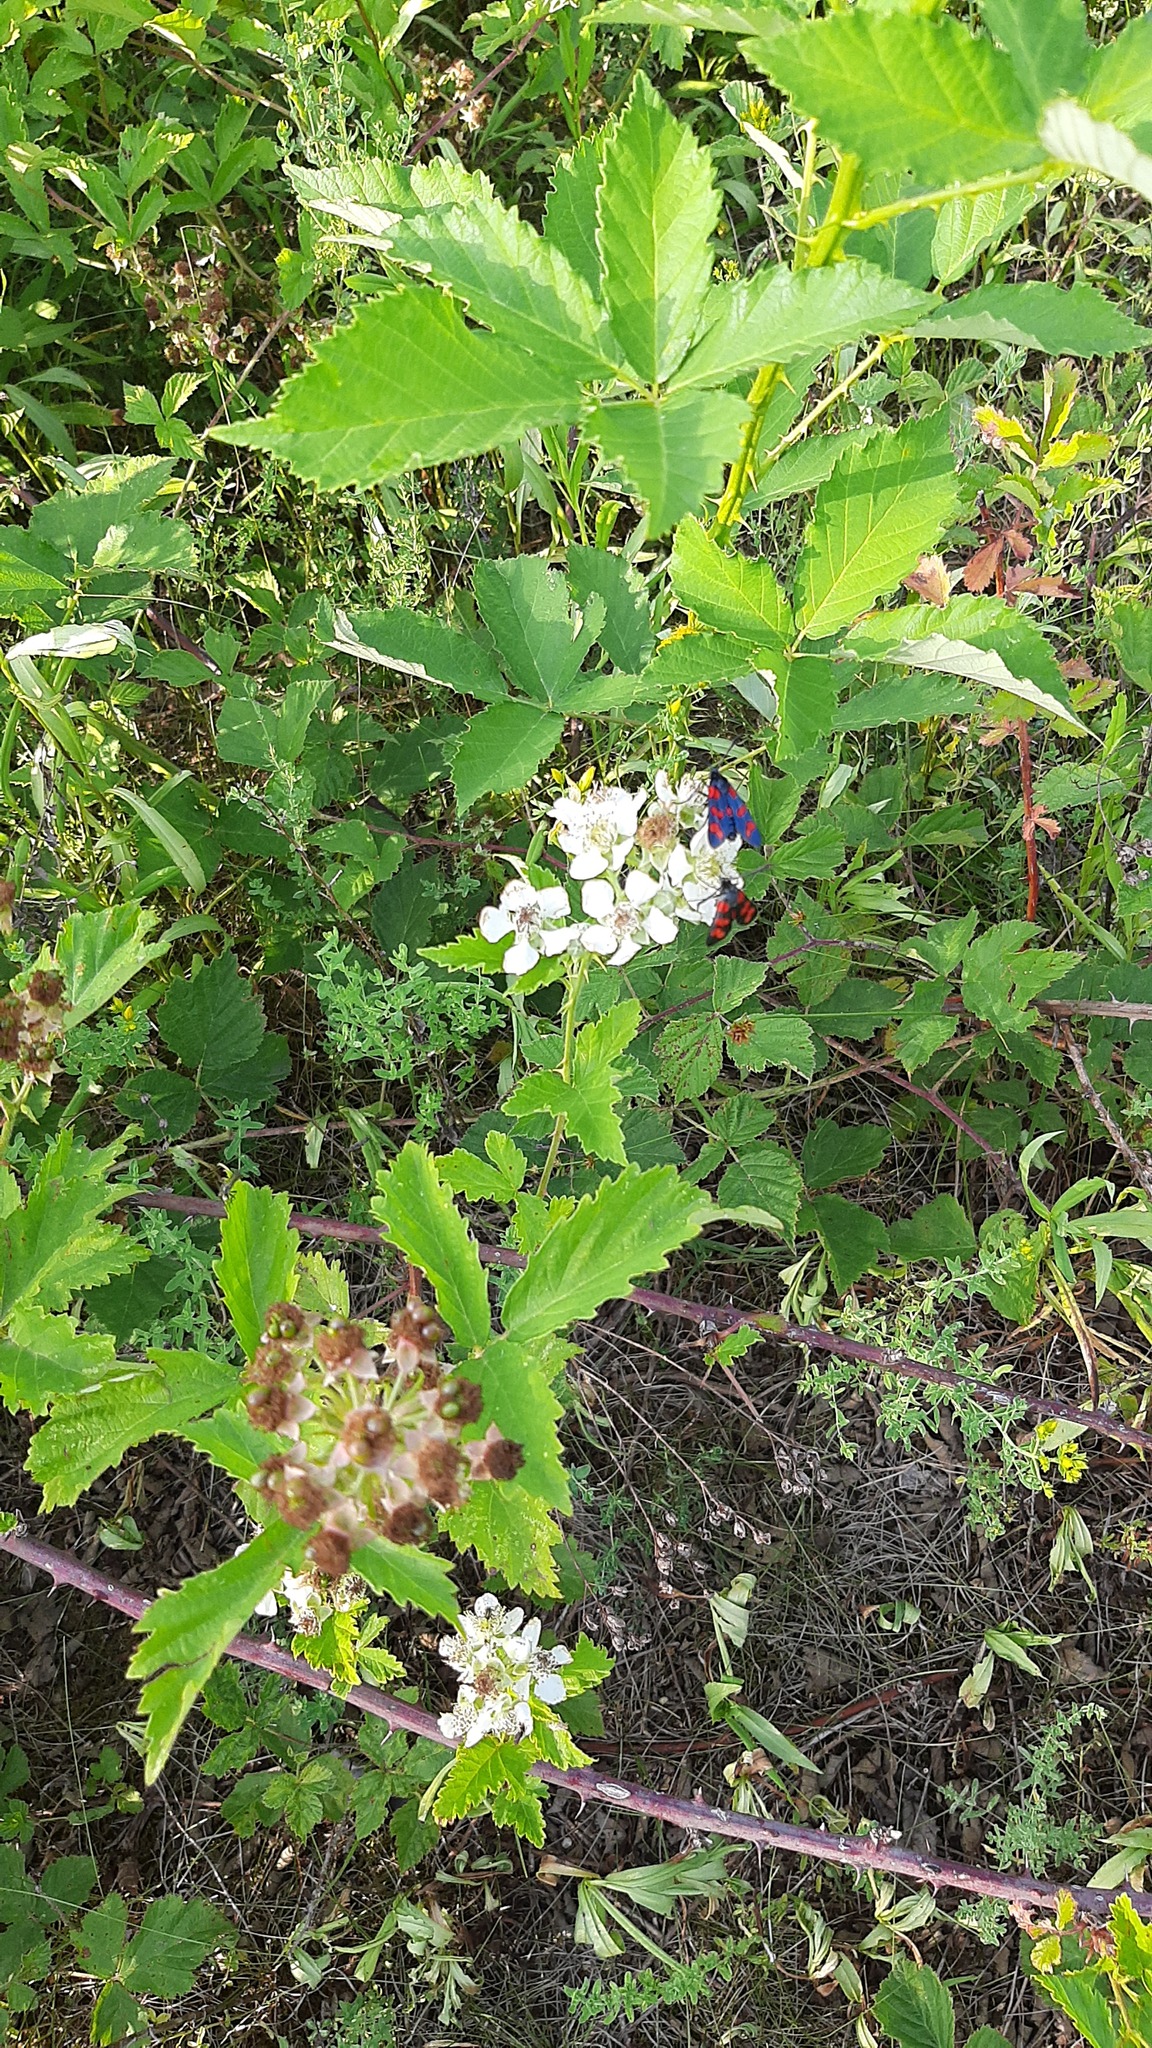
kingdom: Animalia
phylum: Arthropoda
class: Insecta
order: Lepidoptera
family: Zygaenidae
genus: Zygaena
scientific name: Zygaena filipendulae
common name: Six-spot burnet
